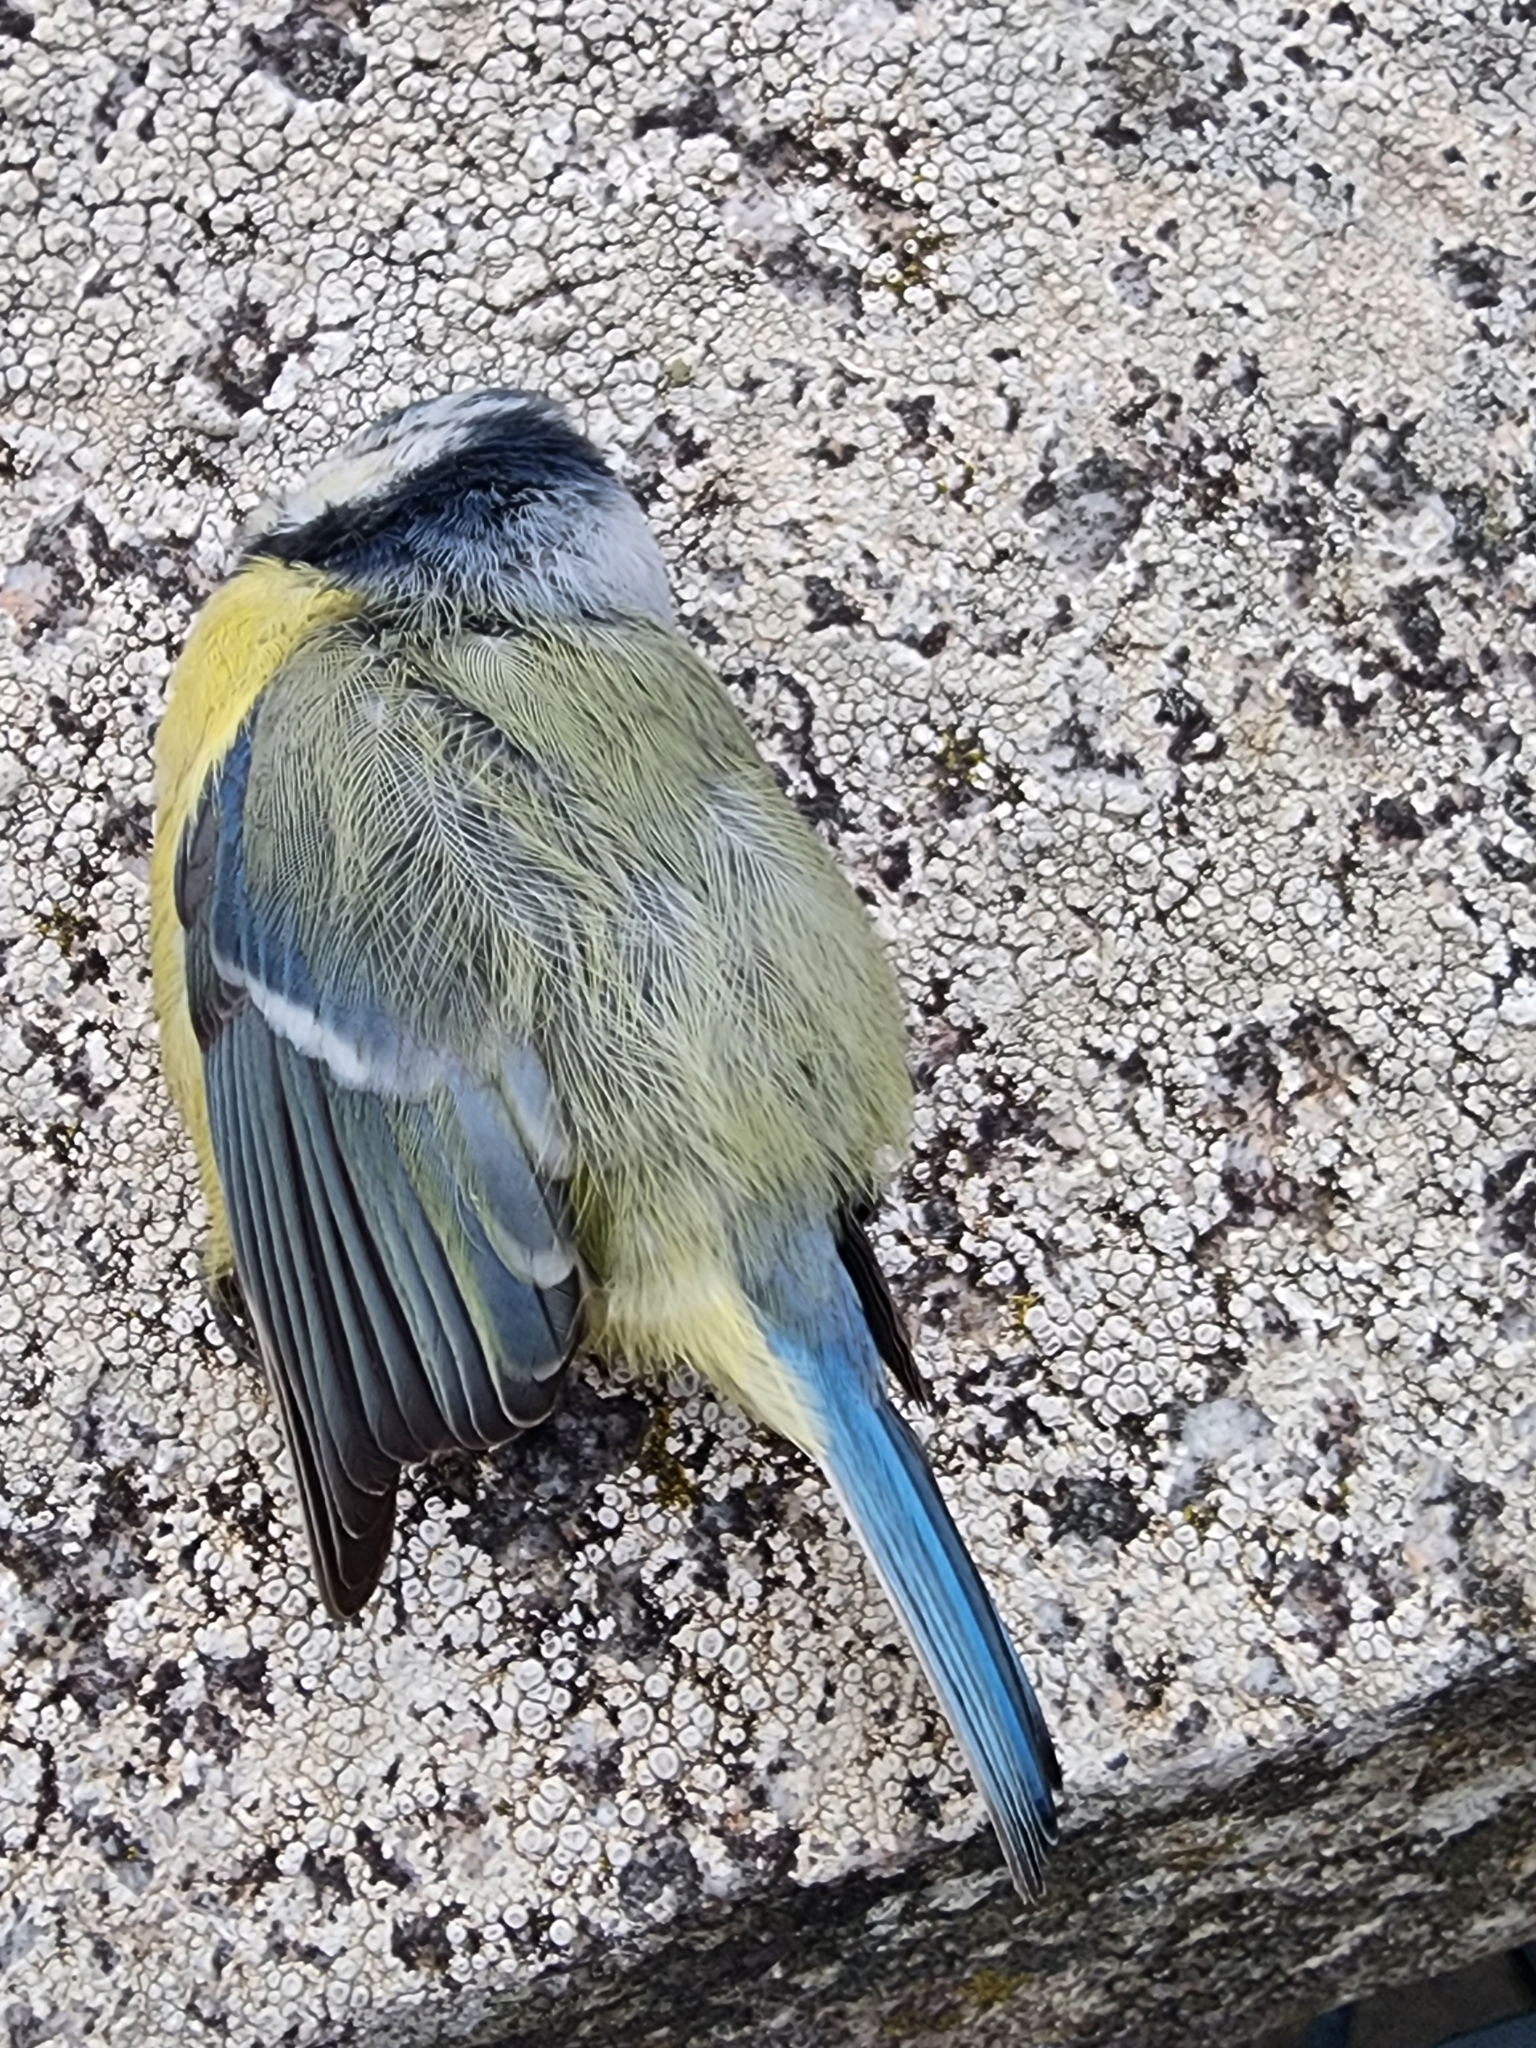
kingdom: Animalia
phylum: Chordata
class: Aves
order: Passeriformes
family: Paridae
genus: Cyanistes
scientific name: Cyanistes caeruleus
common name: Eurasian blue tit
